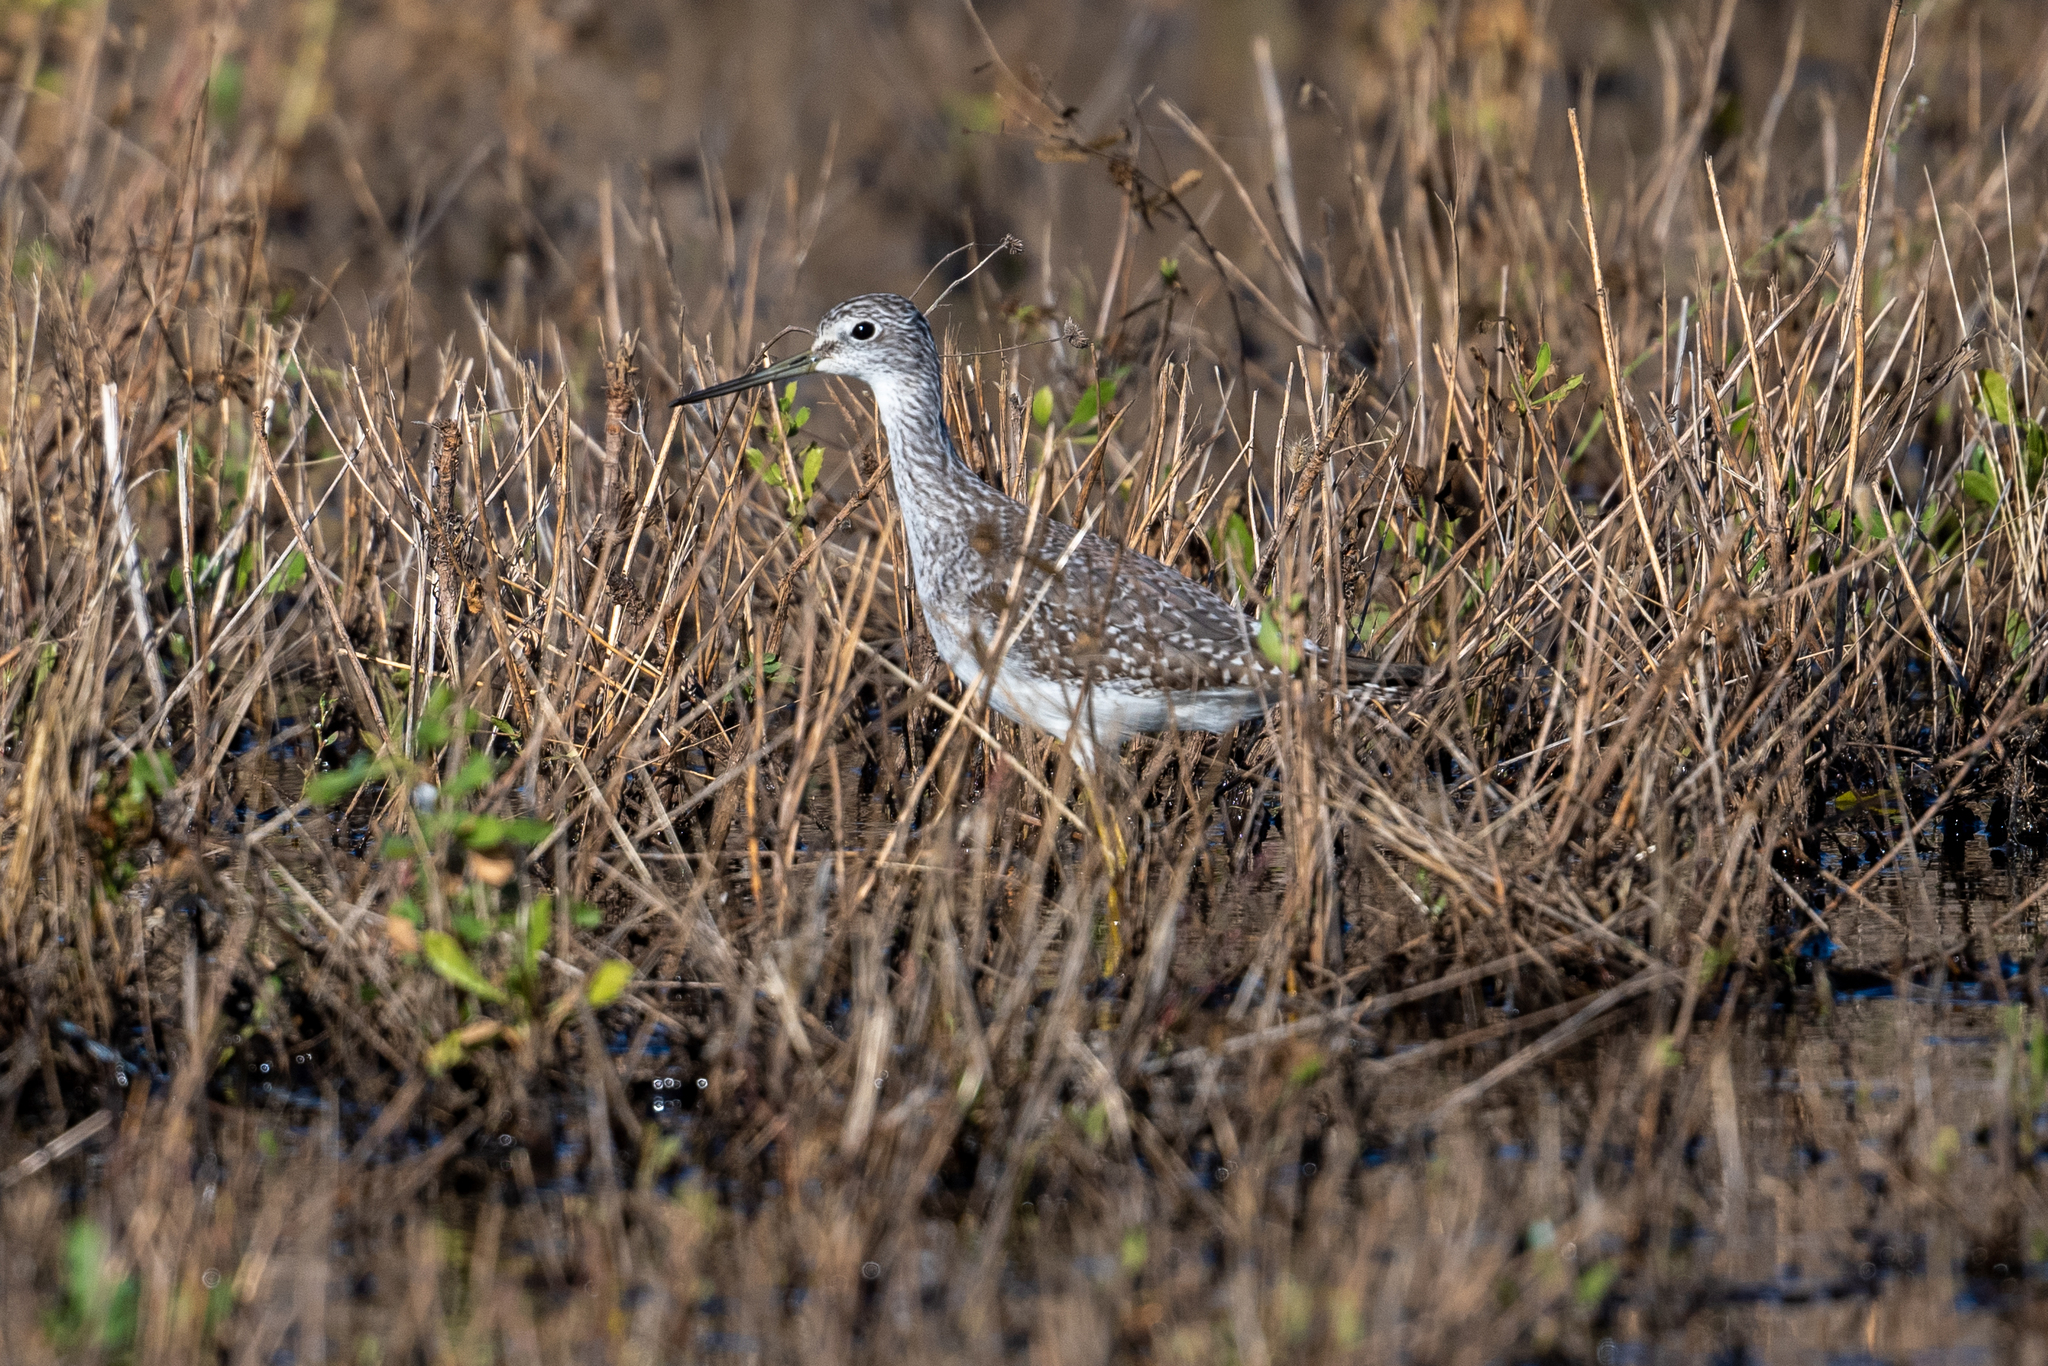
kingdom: Animalia
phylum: Chordata
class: Aves
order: Charadriiformes
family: Scolopacidae
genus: Tringa
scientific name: Tringa melanoleuca
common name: Greater yellowlegs
